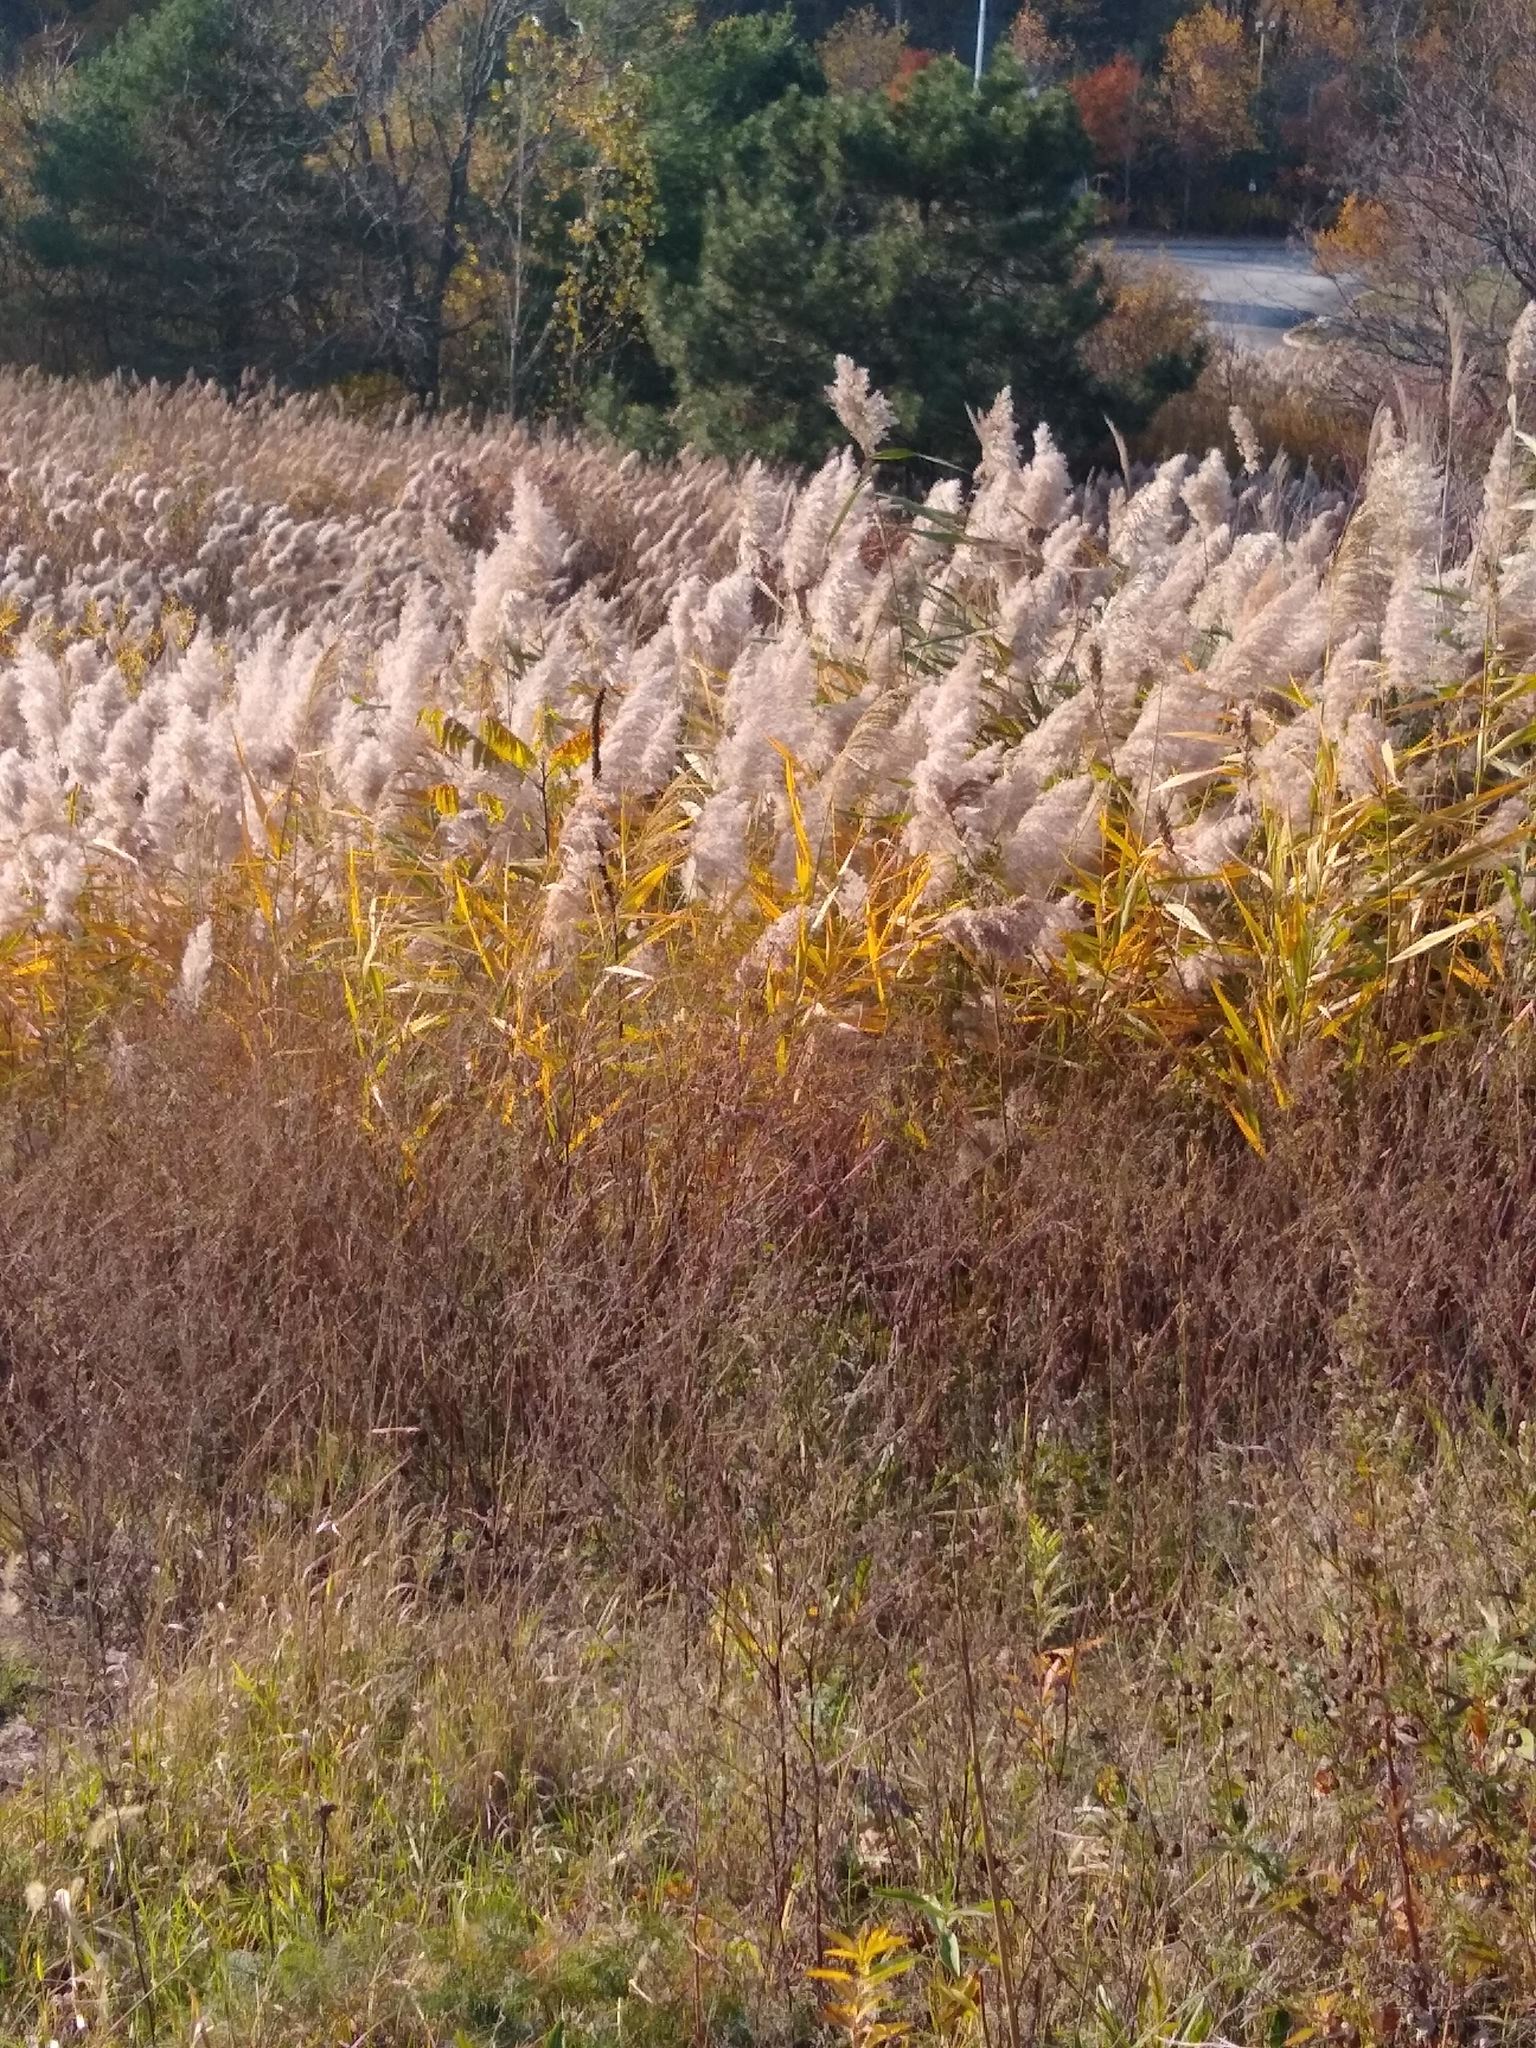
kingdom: Plantae
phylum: Tracheophyta
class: Liliopsida
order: Poales
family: Poaceae
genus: Phragmites
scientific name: Phragmites australis
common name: Common reed
